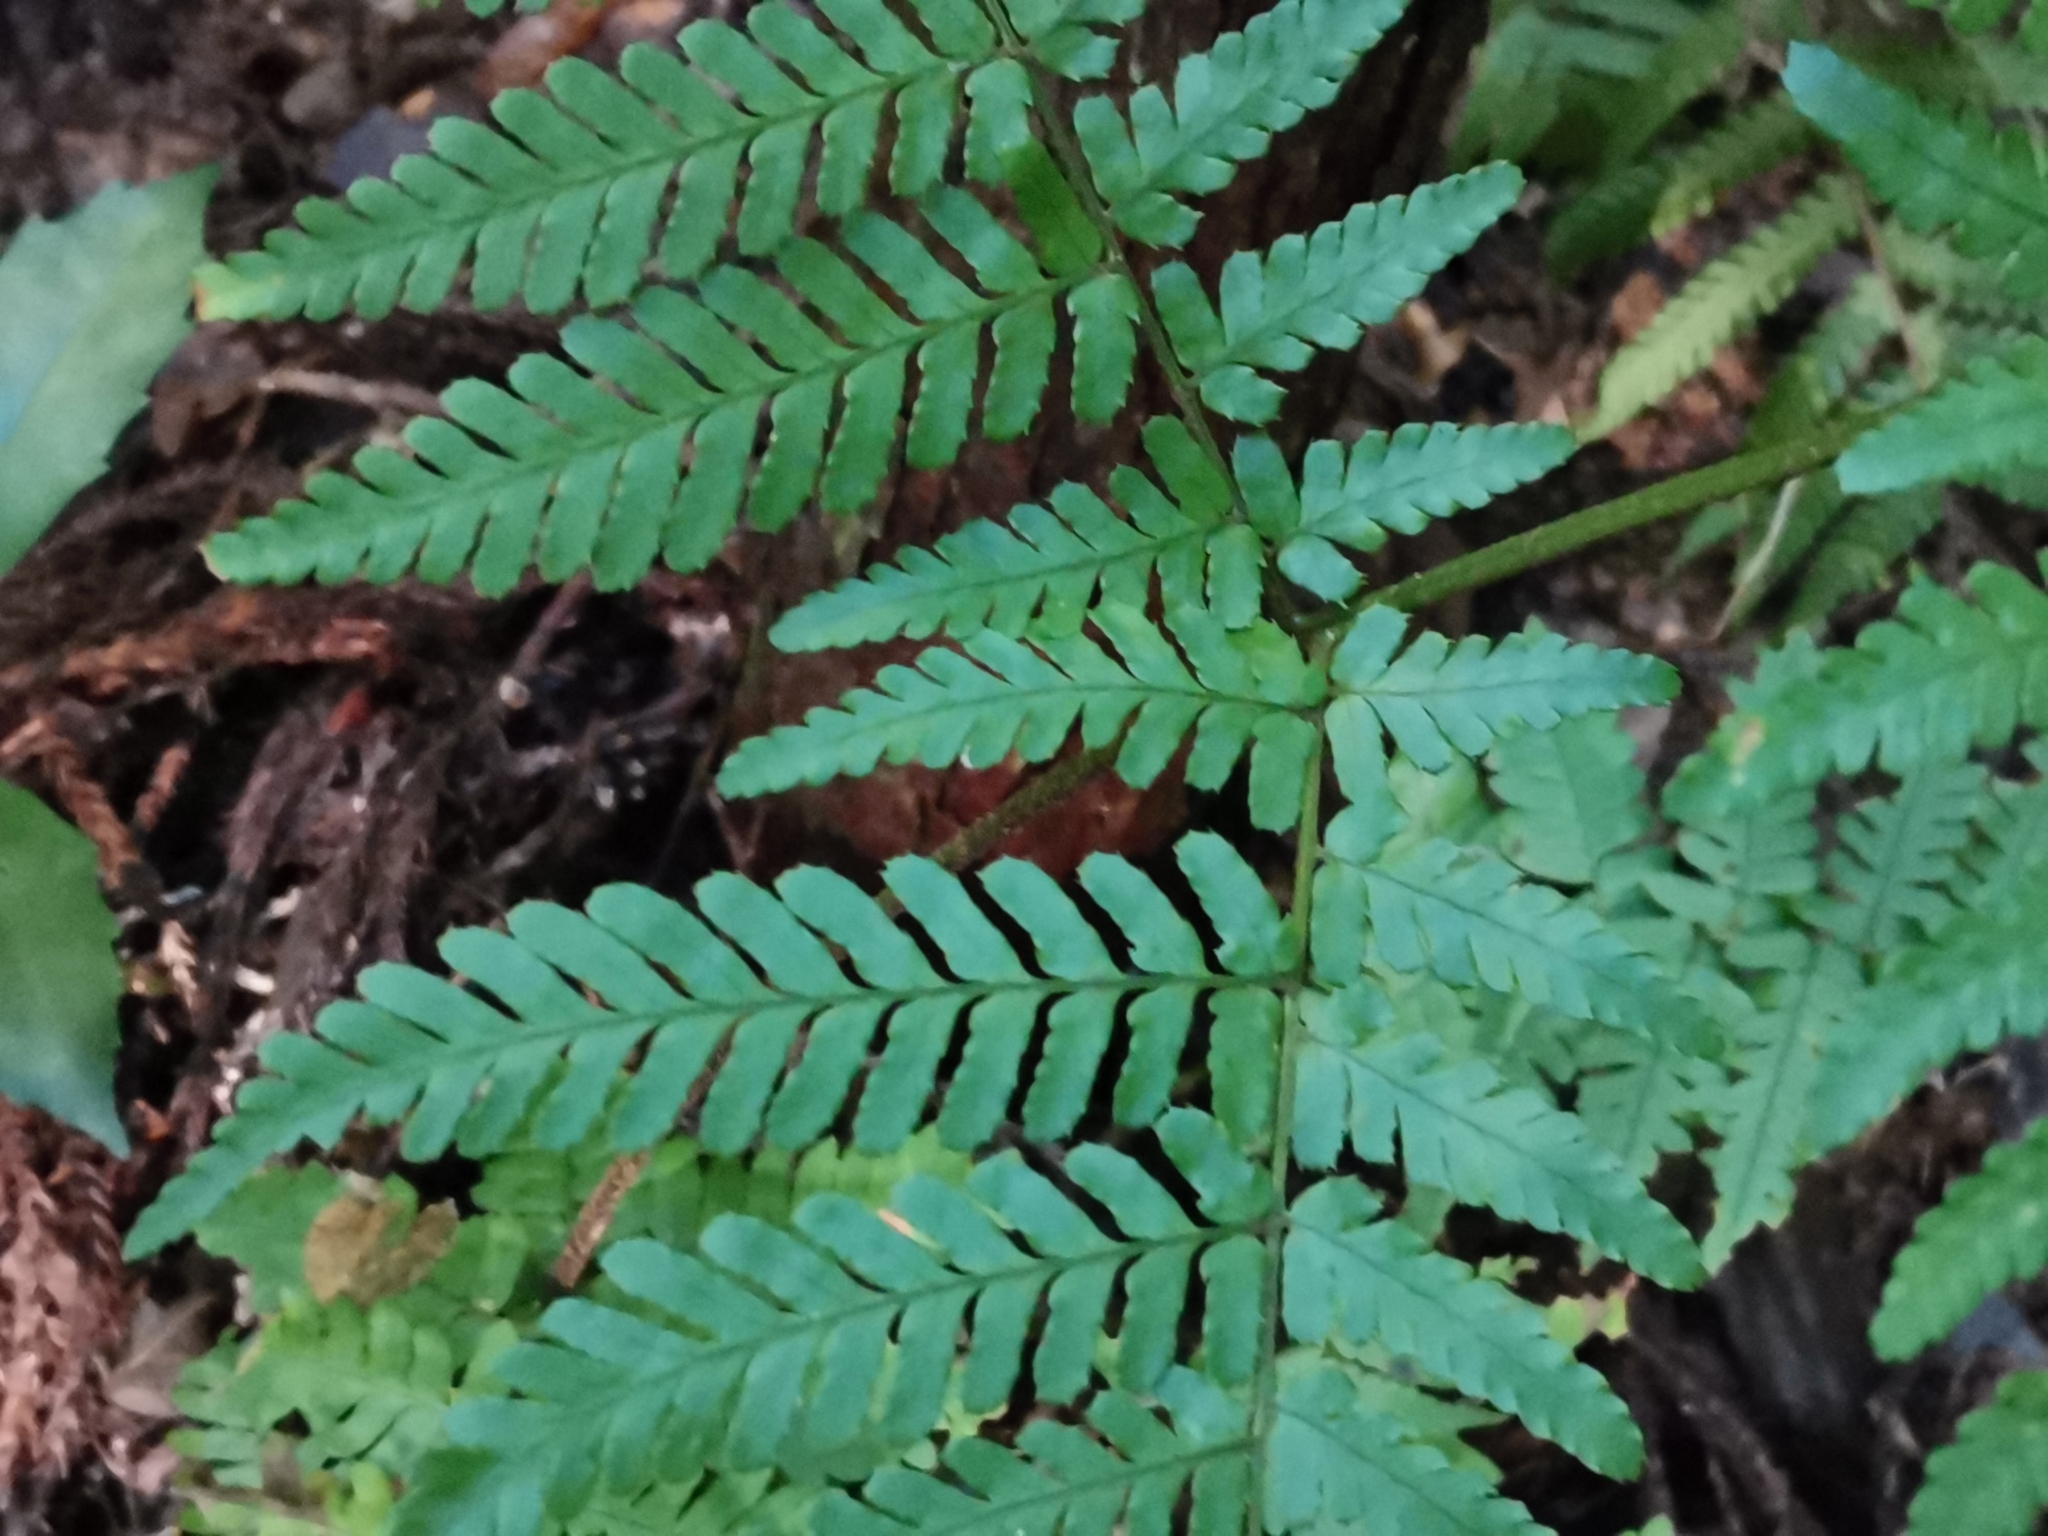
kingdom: Plantae
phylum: Tracheophyta
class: Polypodiopsida
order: Polypodiales
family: Dryopteridaceae
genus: Dryopteris
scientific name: Dryopteris nipponensis
